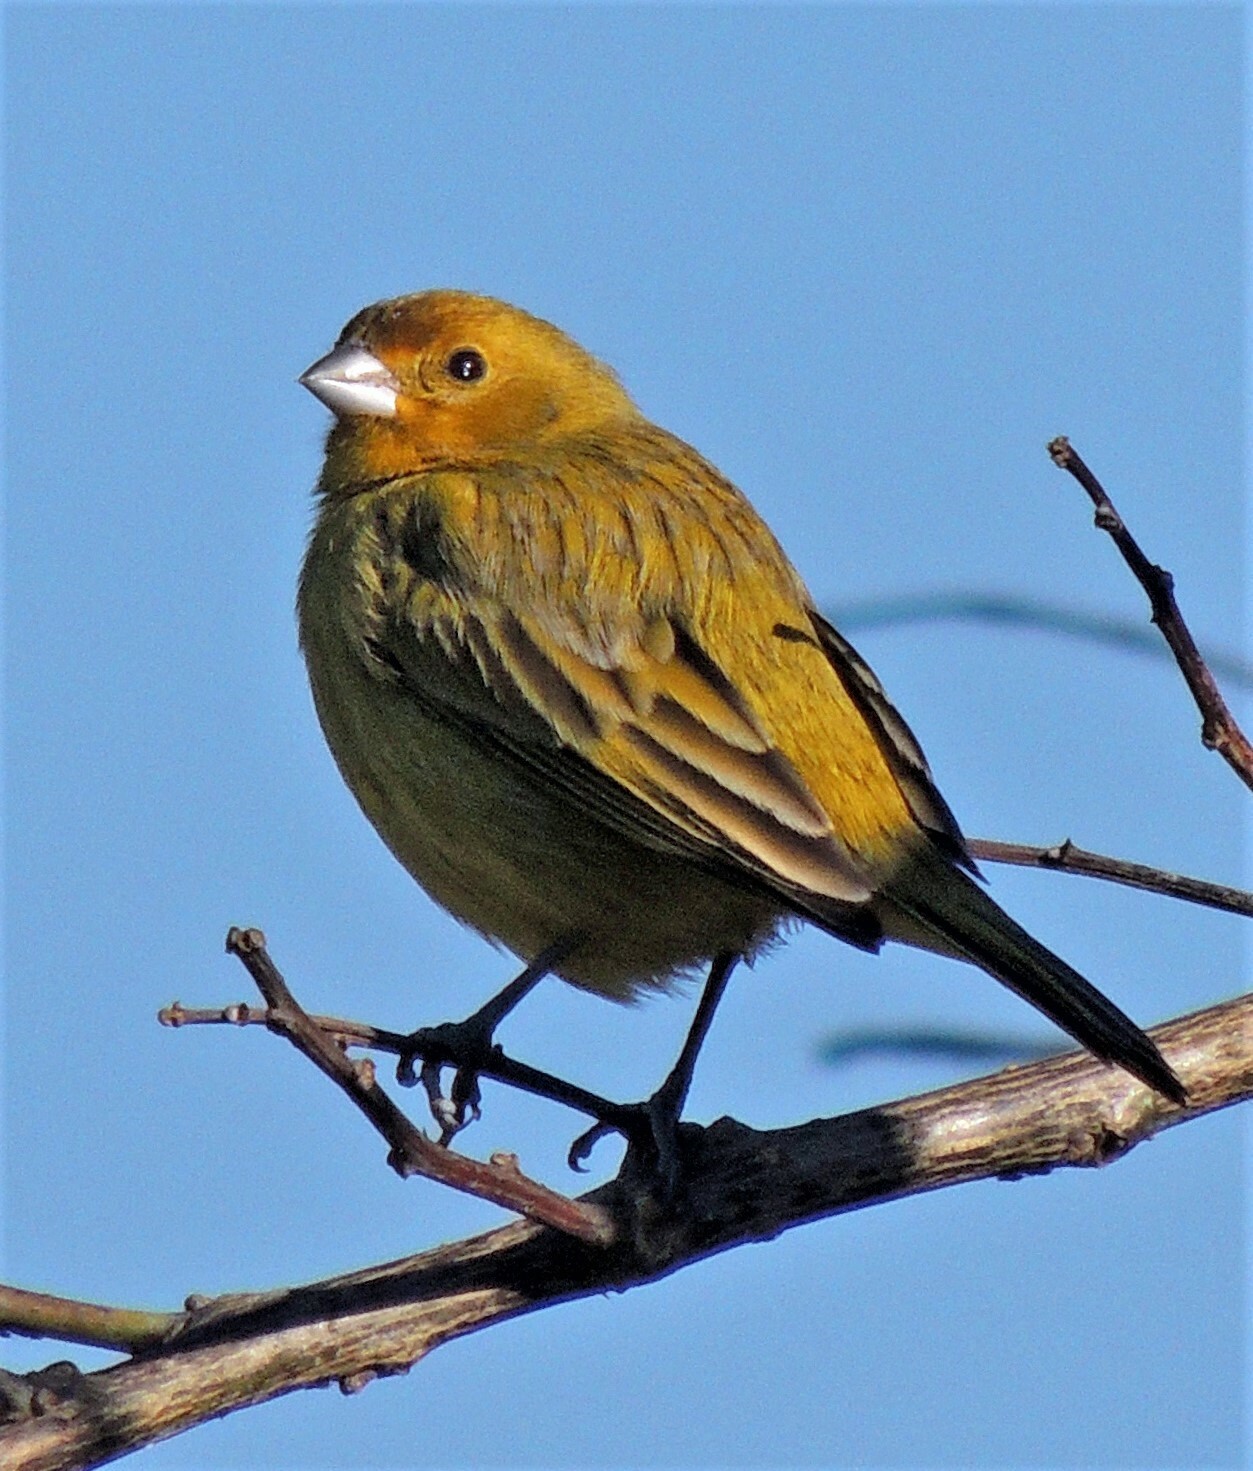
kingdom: Animalia
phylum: Chordata
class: Aves
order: Passeriformes
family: Thraupidae
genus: Sicalis
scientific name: Sicalis flaveola
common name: Saffron finch
